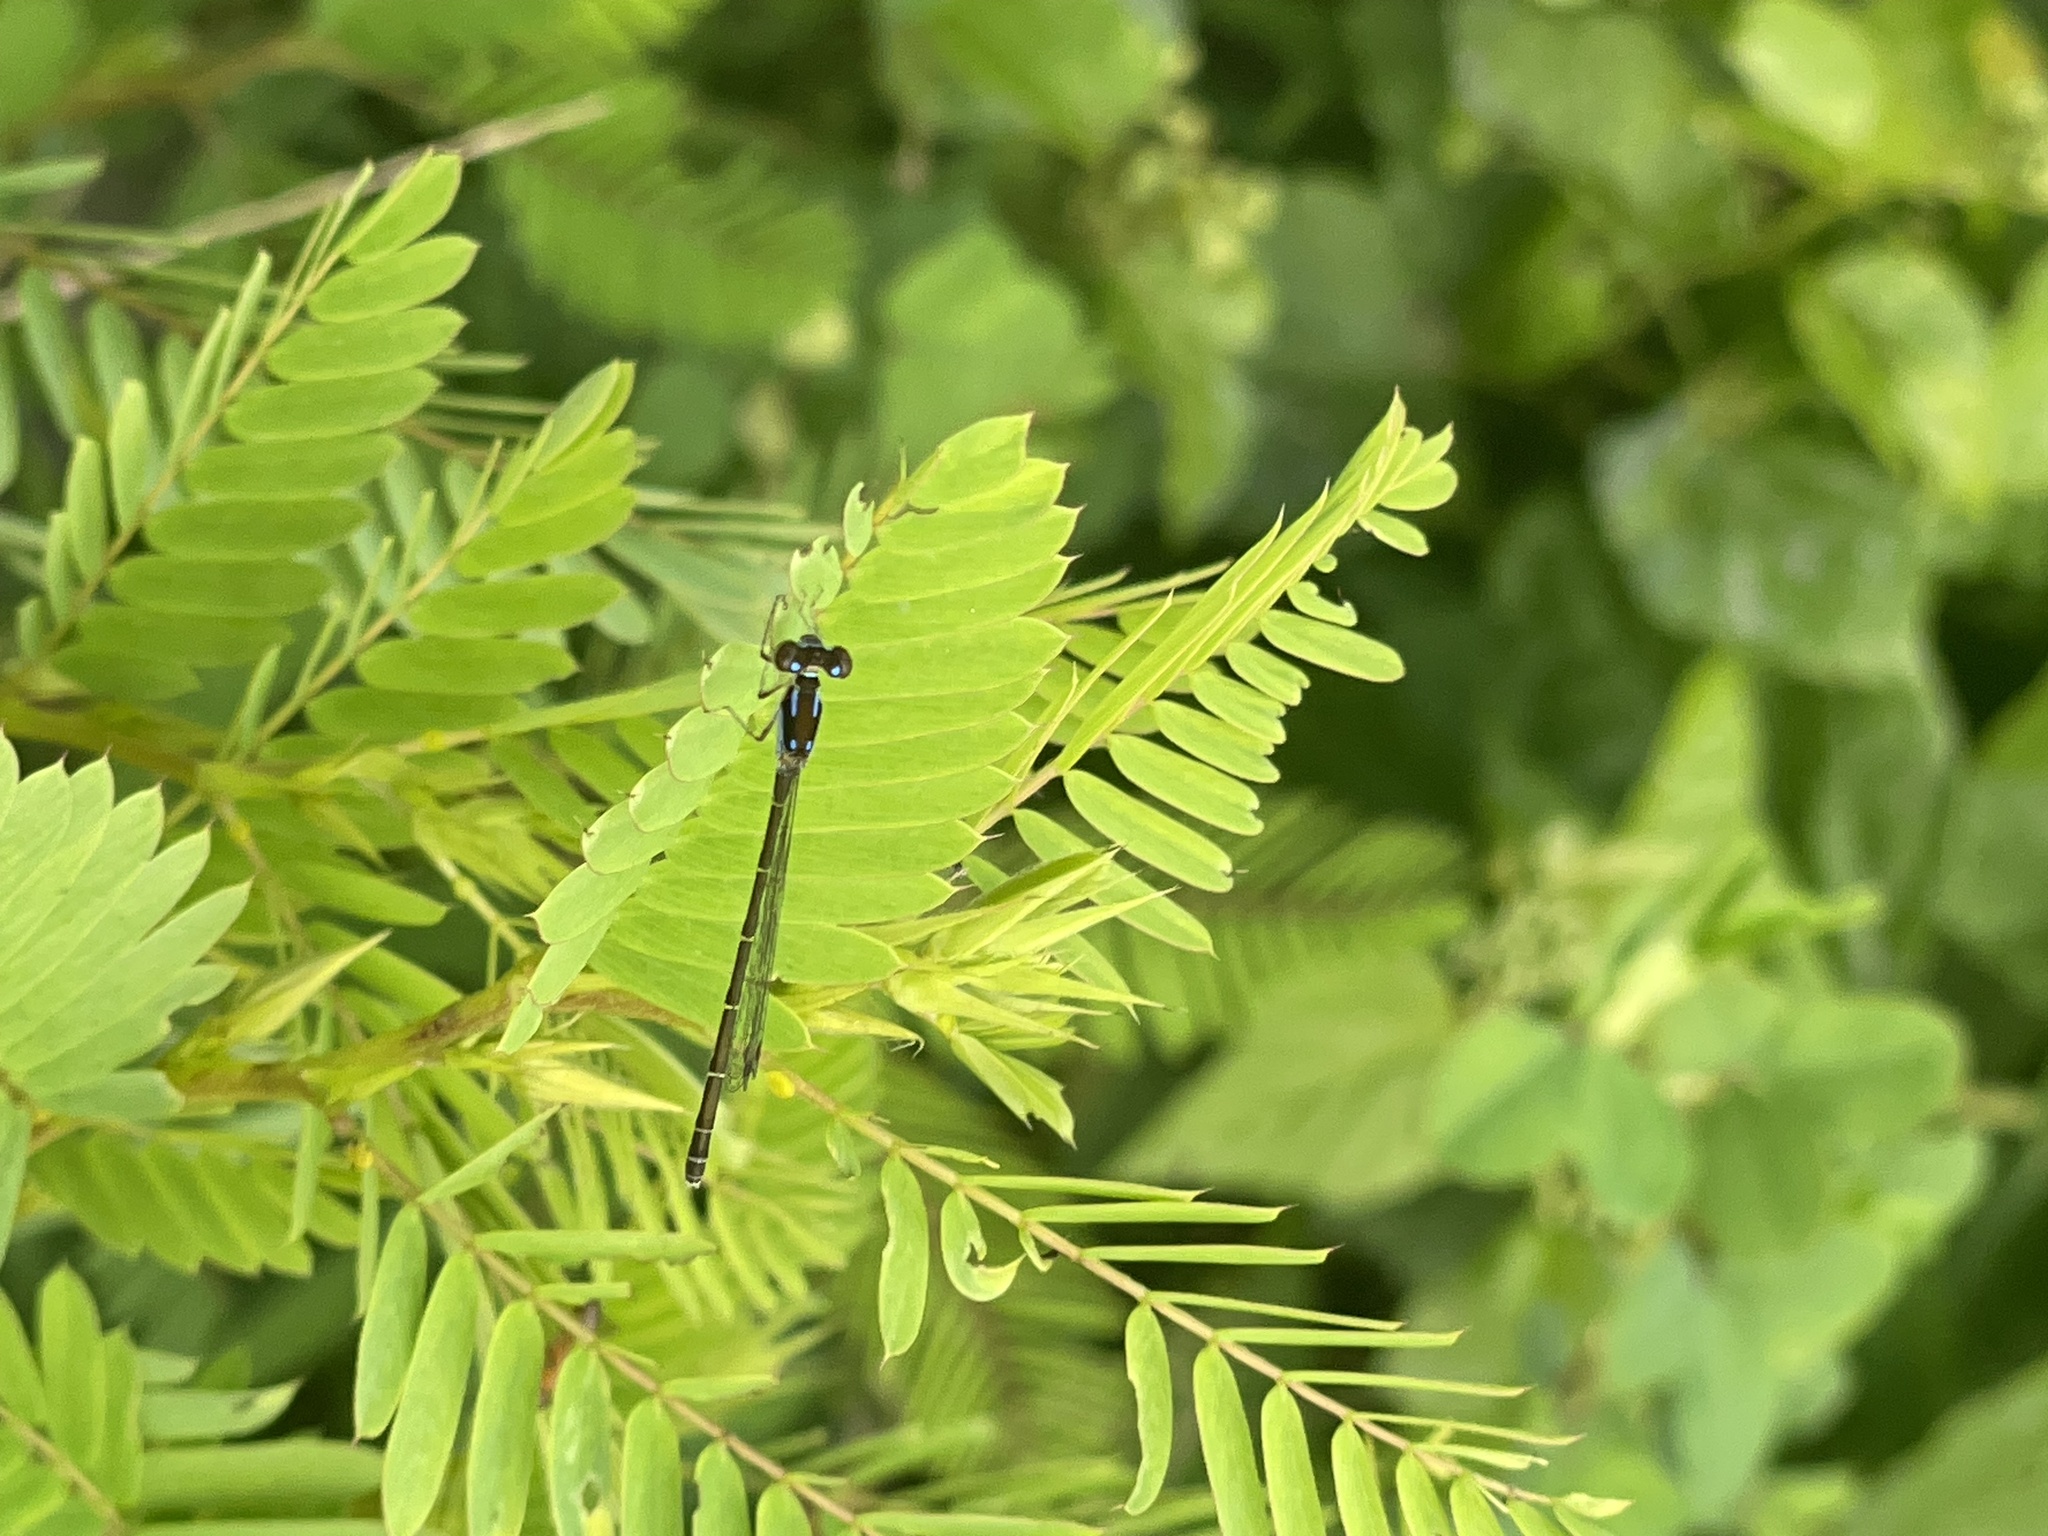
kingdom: Animalia
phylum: Arthropoda
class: Insecta
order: Odonata
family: Coenagrionidae
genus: Ischnura
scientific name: Ischnura posita
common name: Fragile forktail
